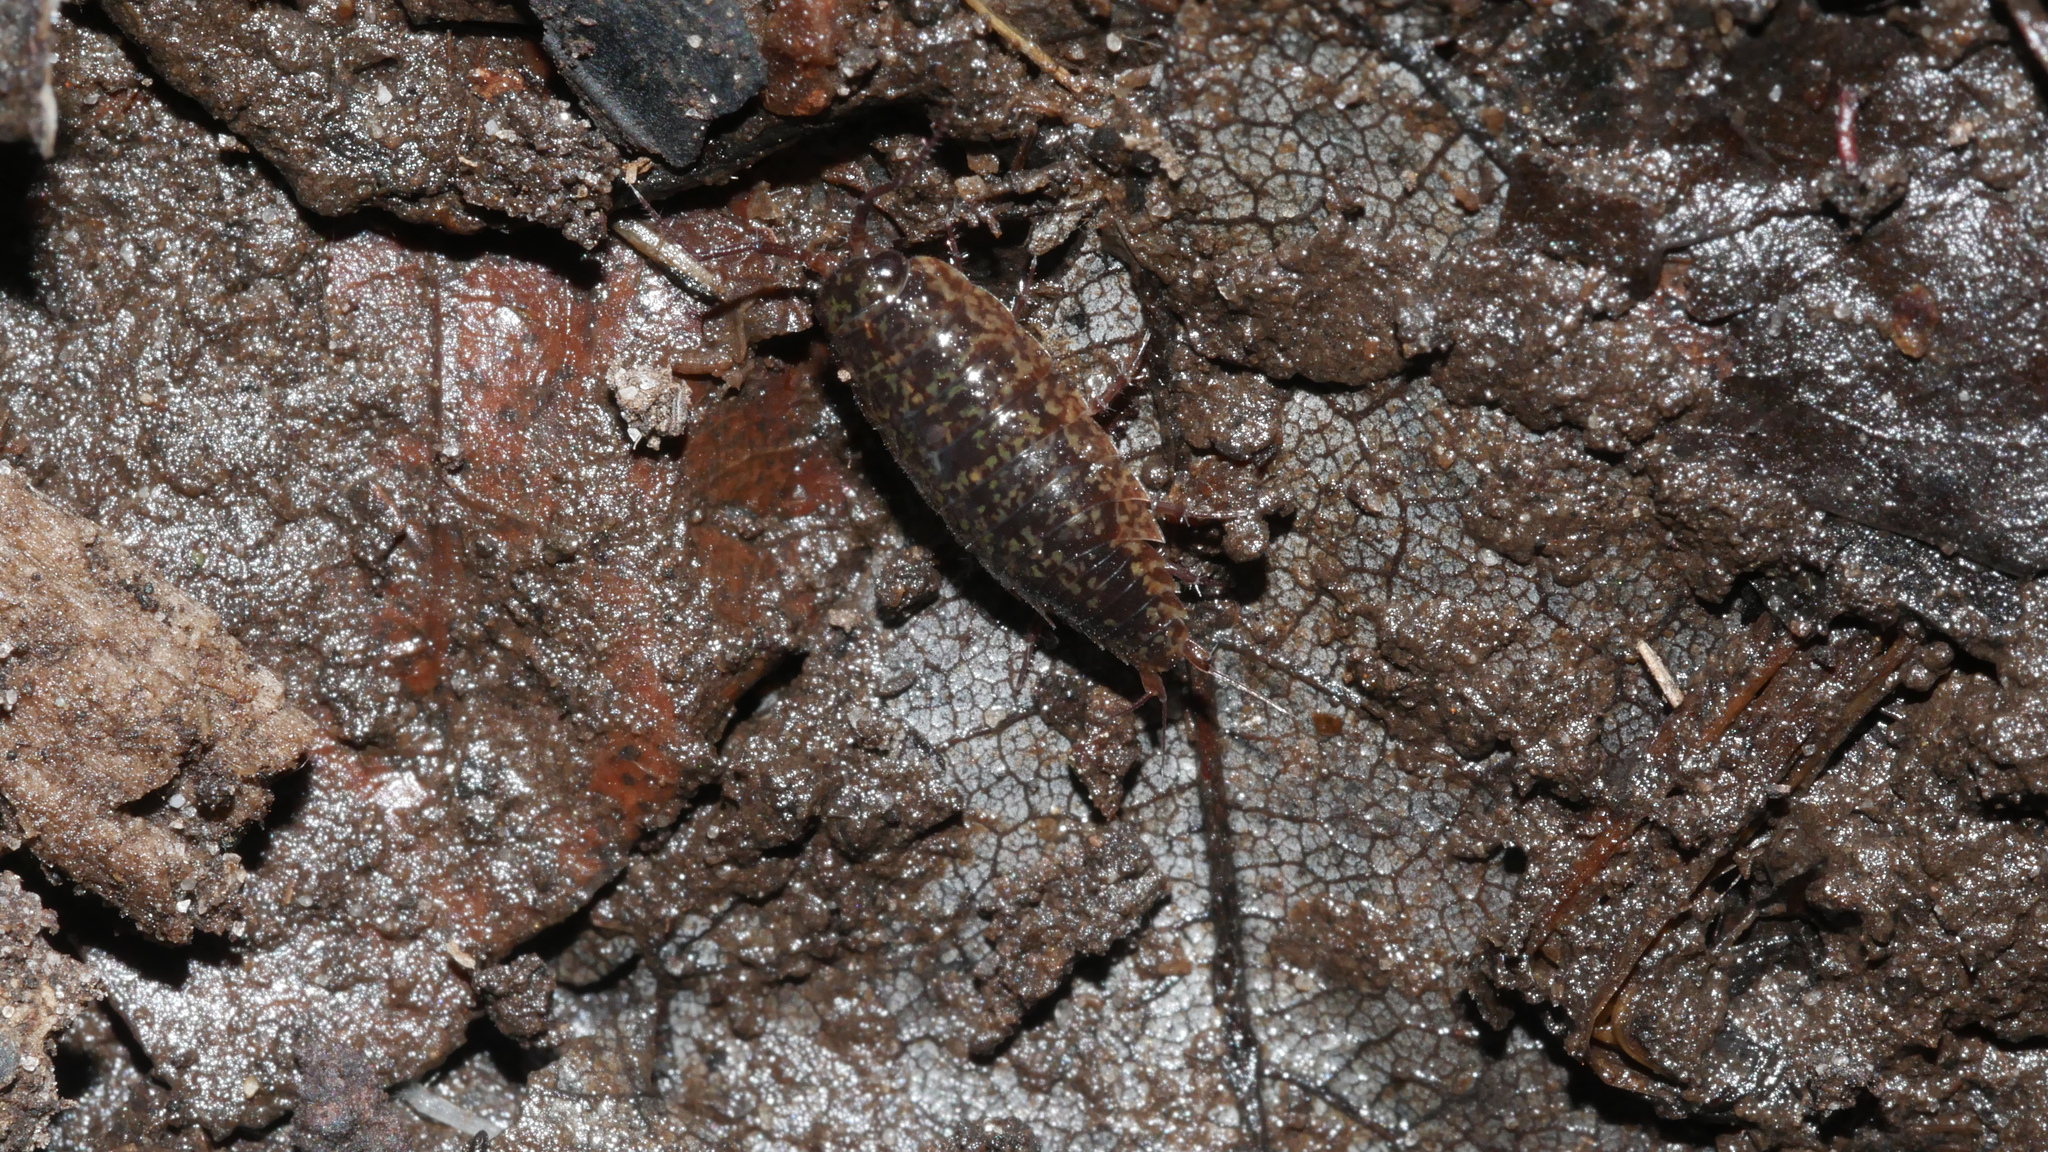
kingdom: Animalia
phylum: Arthropoda
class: Malacostraca
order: Isopoda
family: Ligiidae
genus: Ligidium
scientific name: Ligidium elrodii
